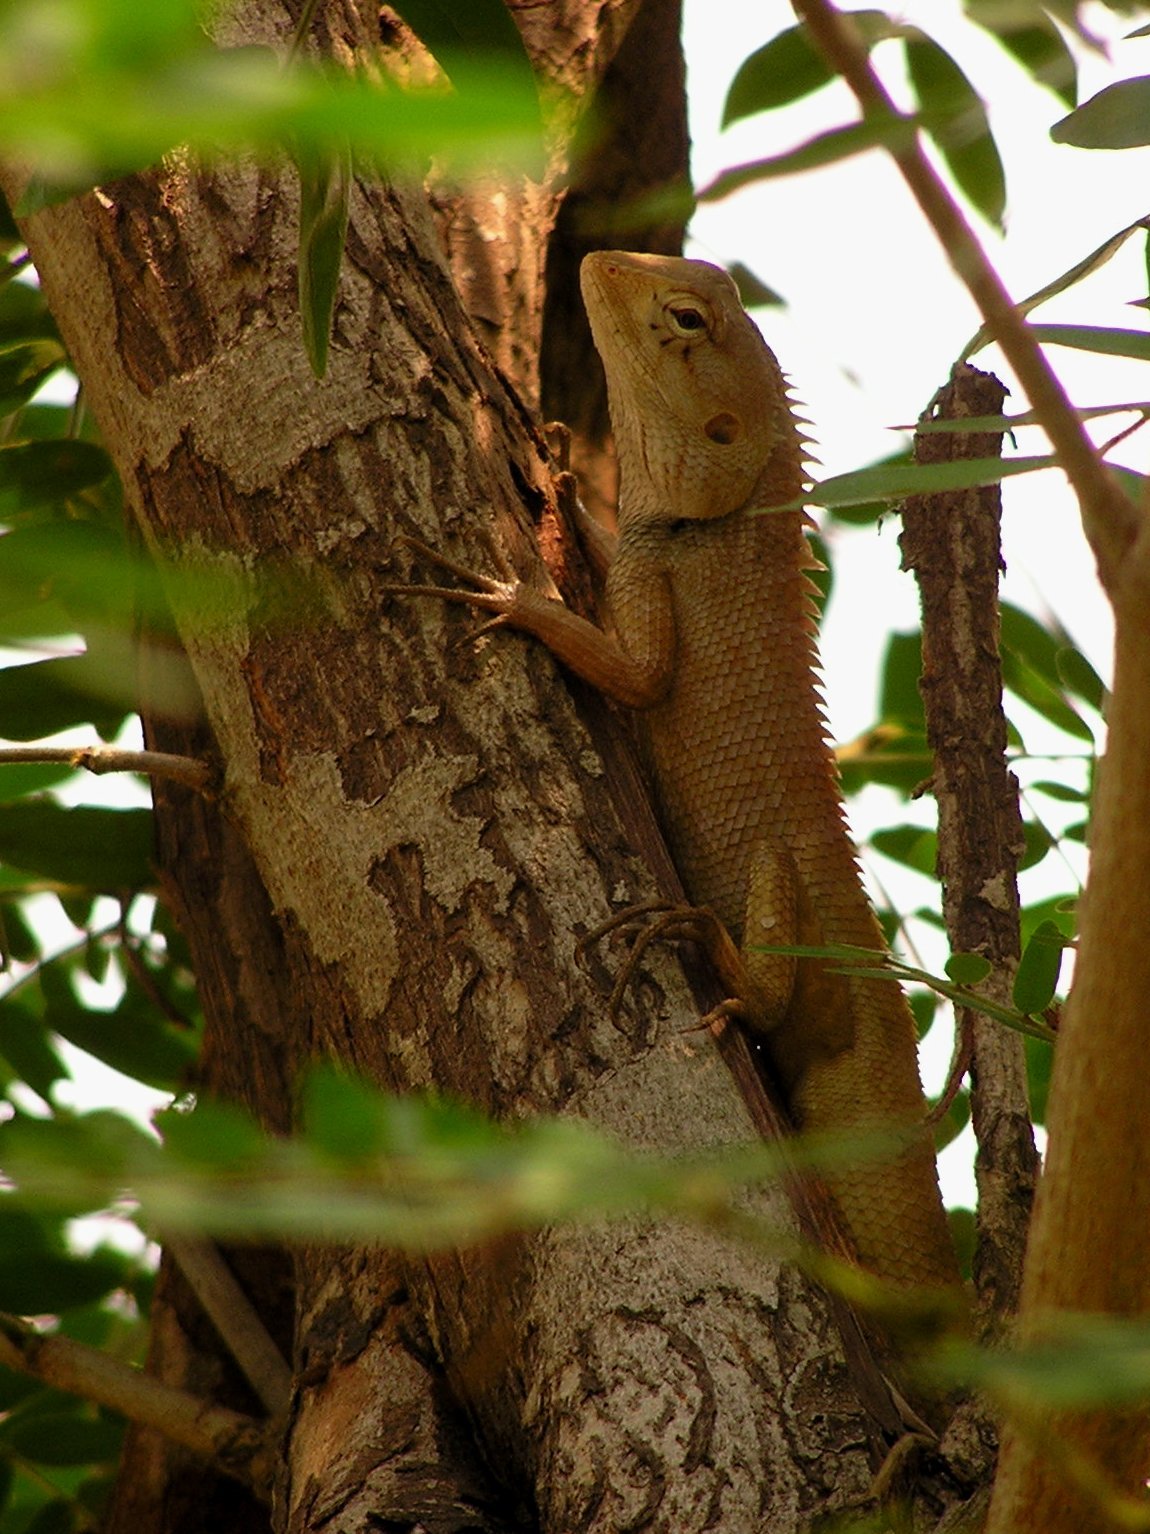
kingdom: Animalia
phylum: Chordata
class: Squamata
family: Agamidae
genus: Calotes
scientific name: Calotes versicolor
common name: Oriental garden lizard
